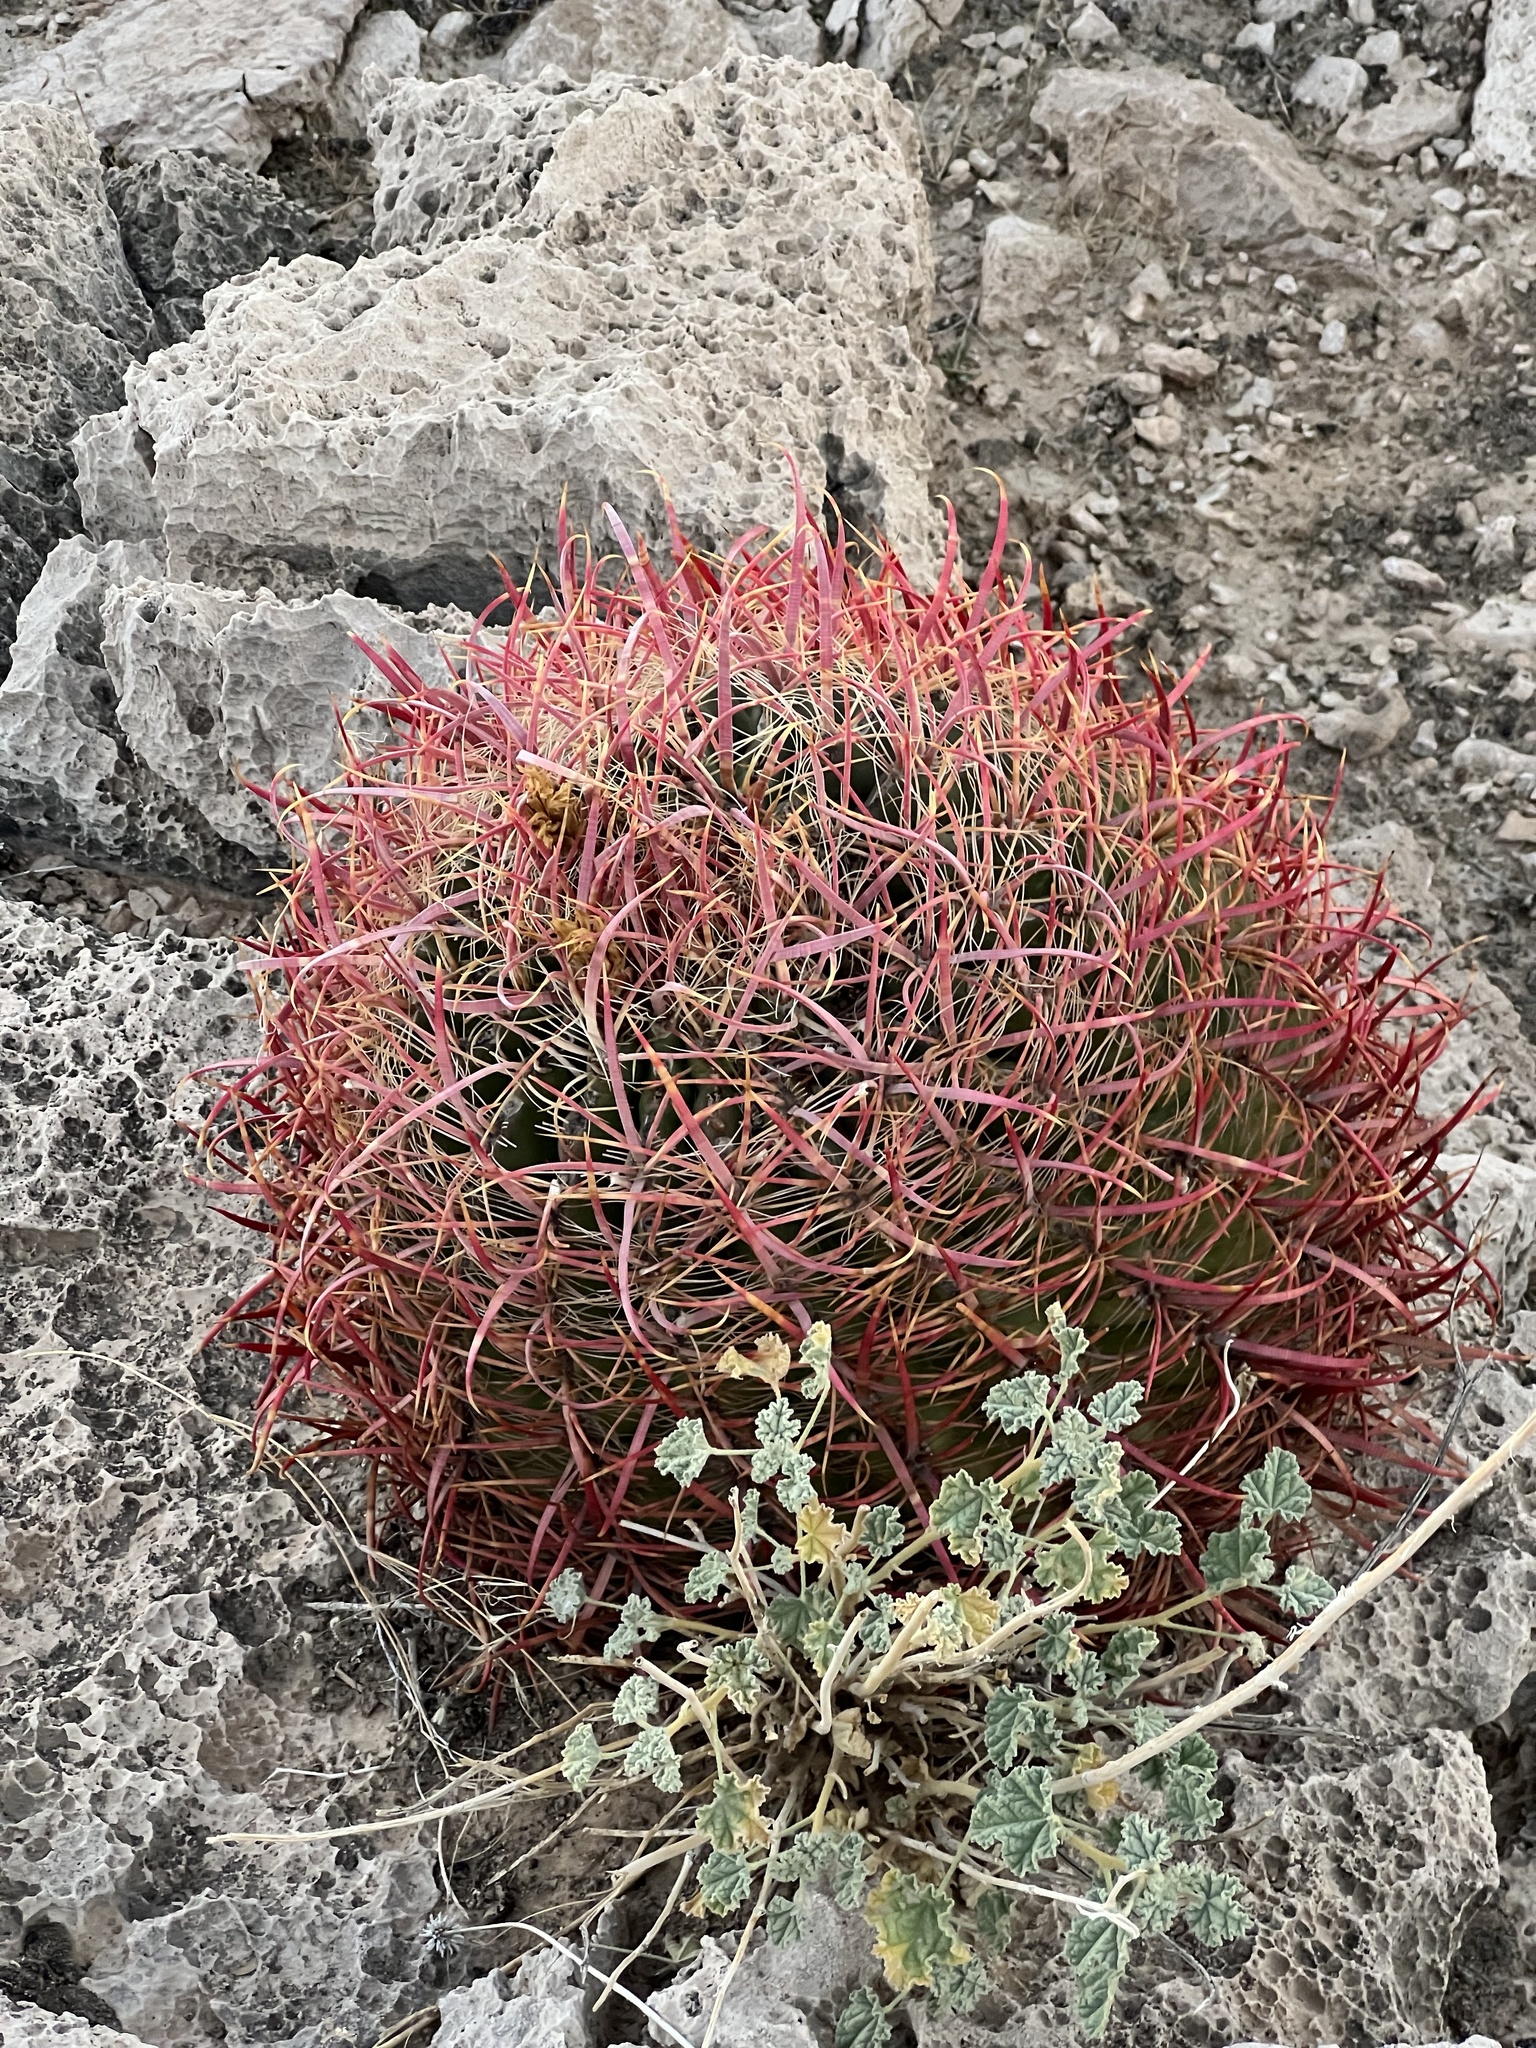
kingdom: Plantae
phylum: Tracheophyta
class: Magnoliopsida
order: Caryophyllales
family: Cactaceae
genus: Ferocactus
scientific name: Ferocactus cylindraceus
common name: California barrel cactus
